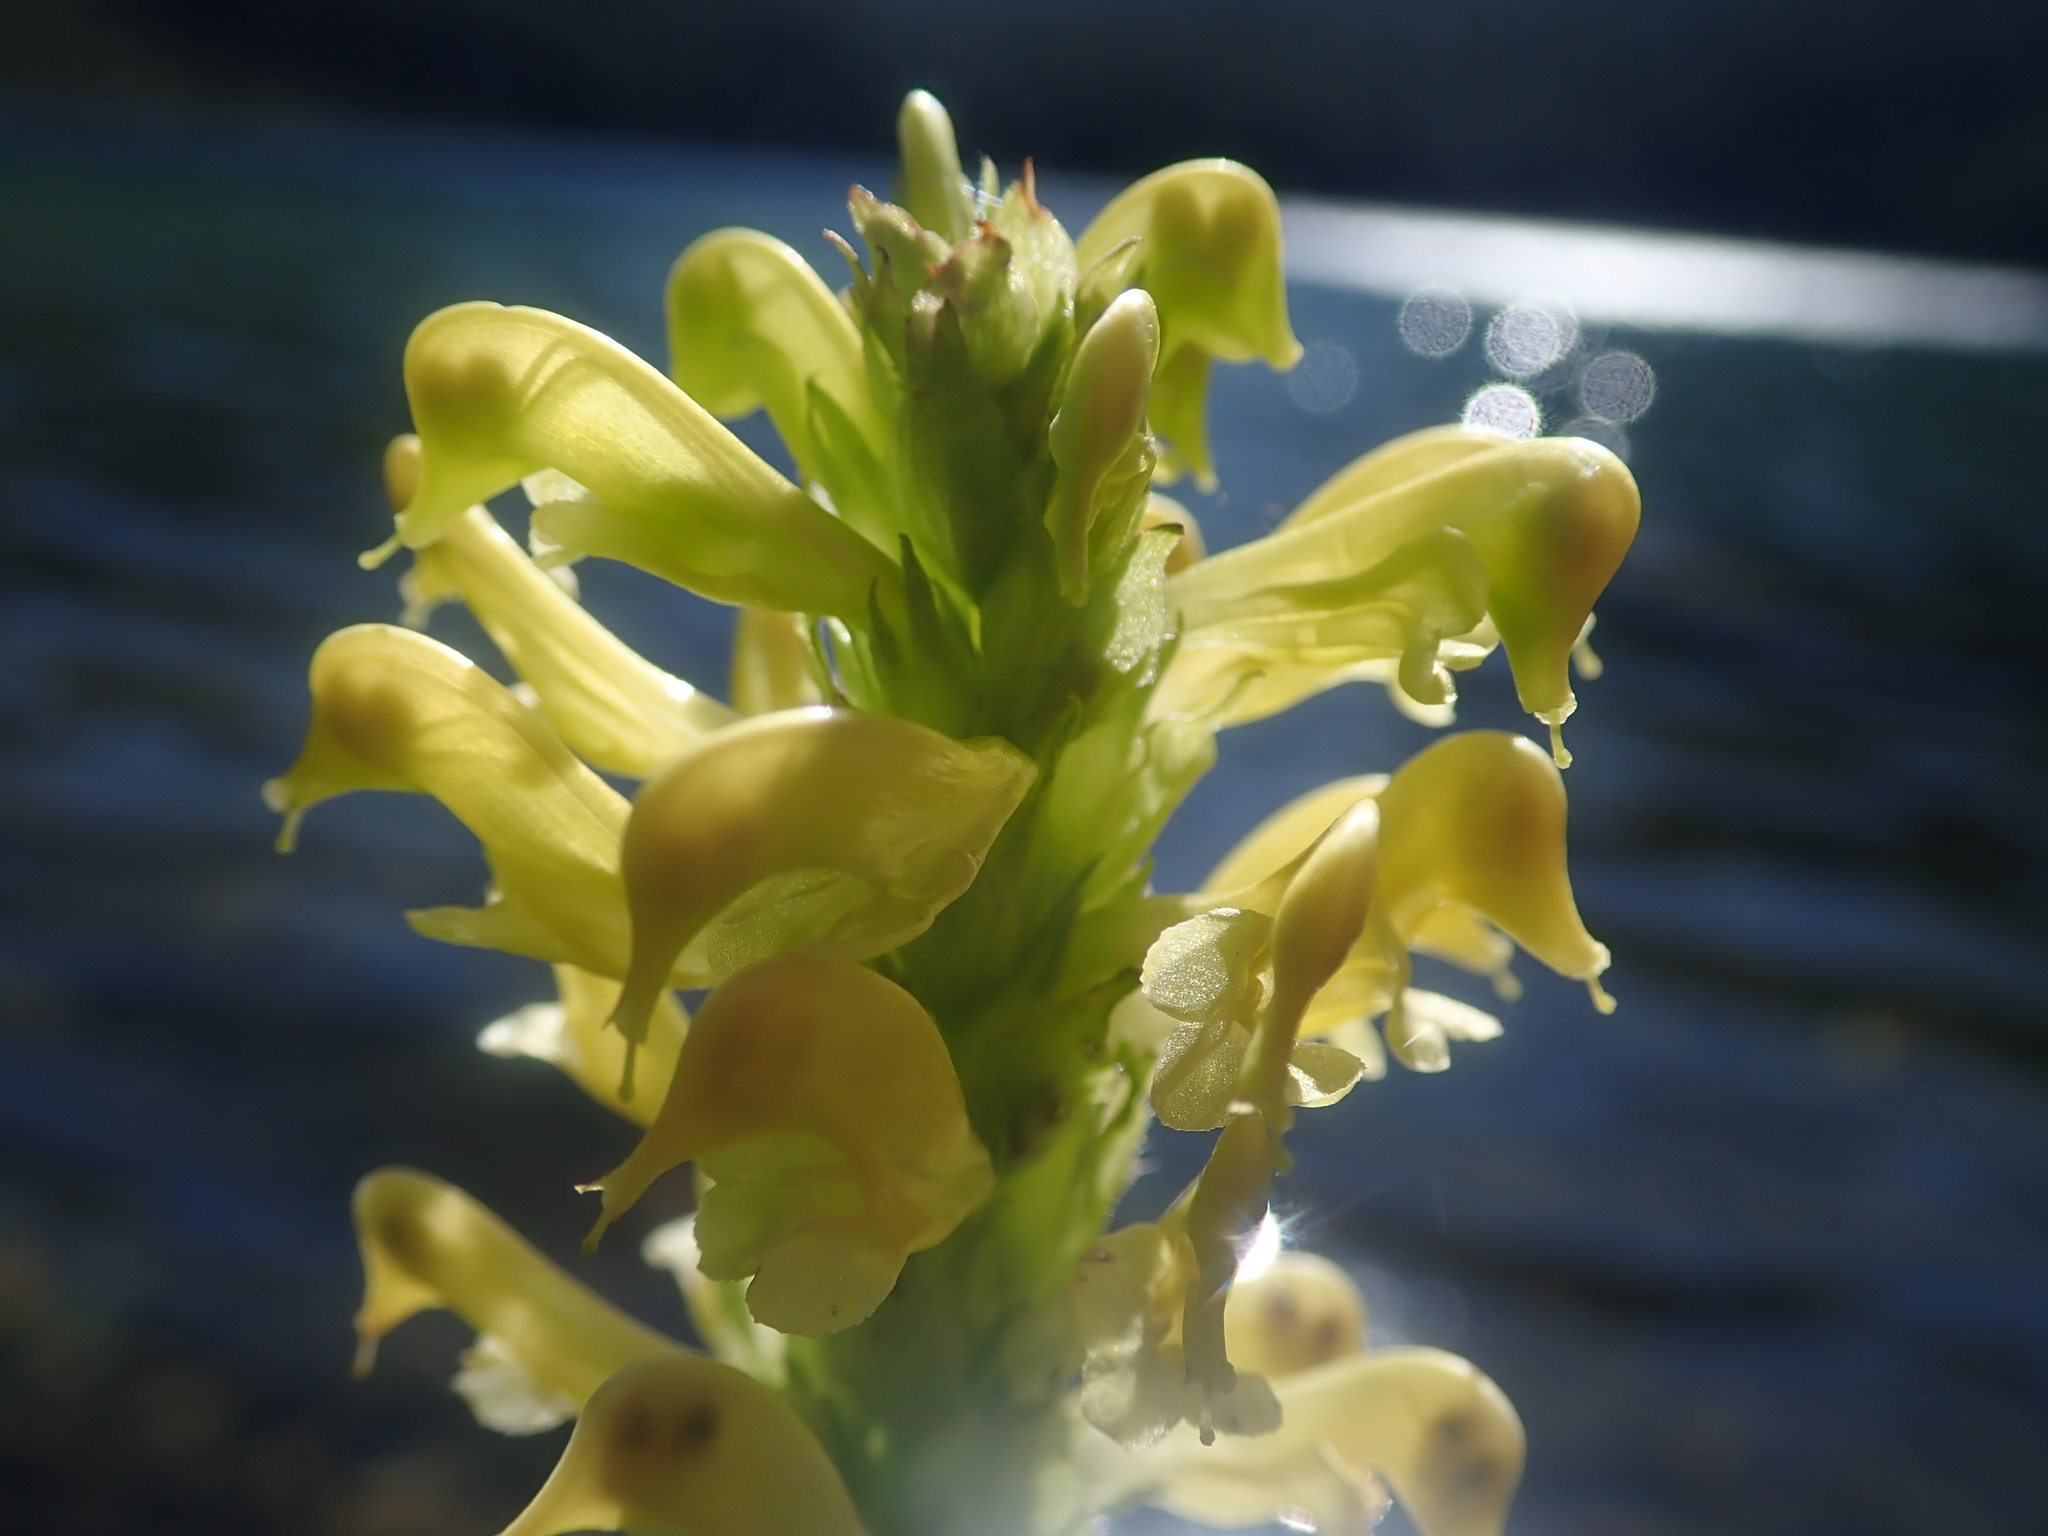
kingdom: Plantae
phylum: Tracheophyta
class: Magnoliopsida
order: Lamiales
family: Orobanchaceae
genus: Pedicularis
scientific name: Pedicularis bracteosa
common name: Bracted lousewort
